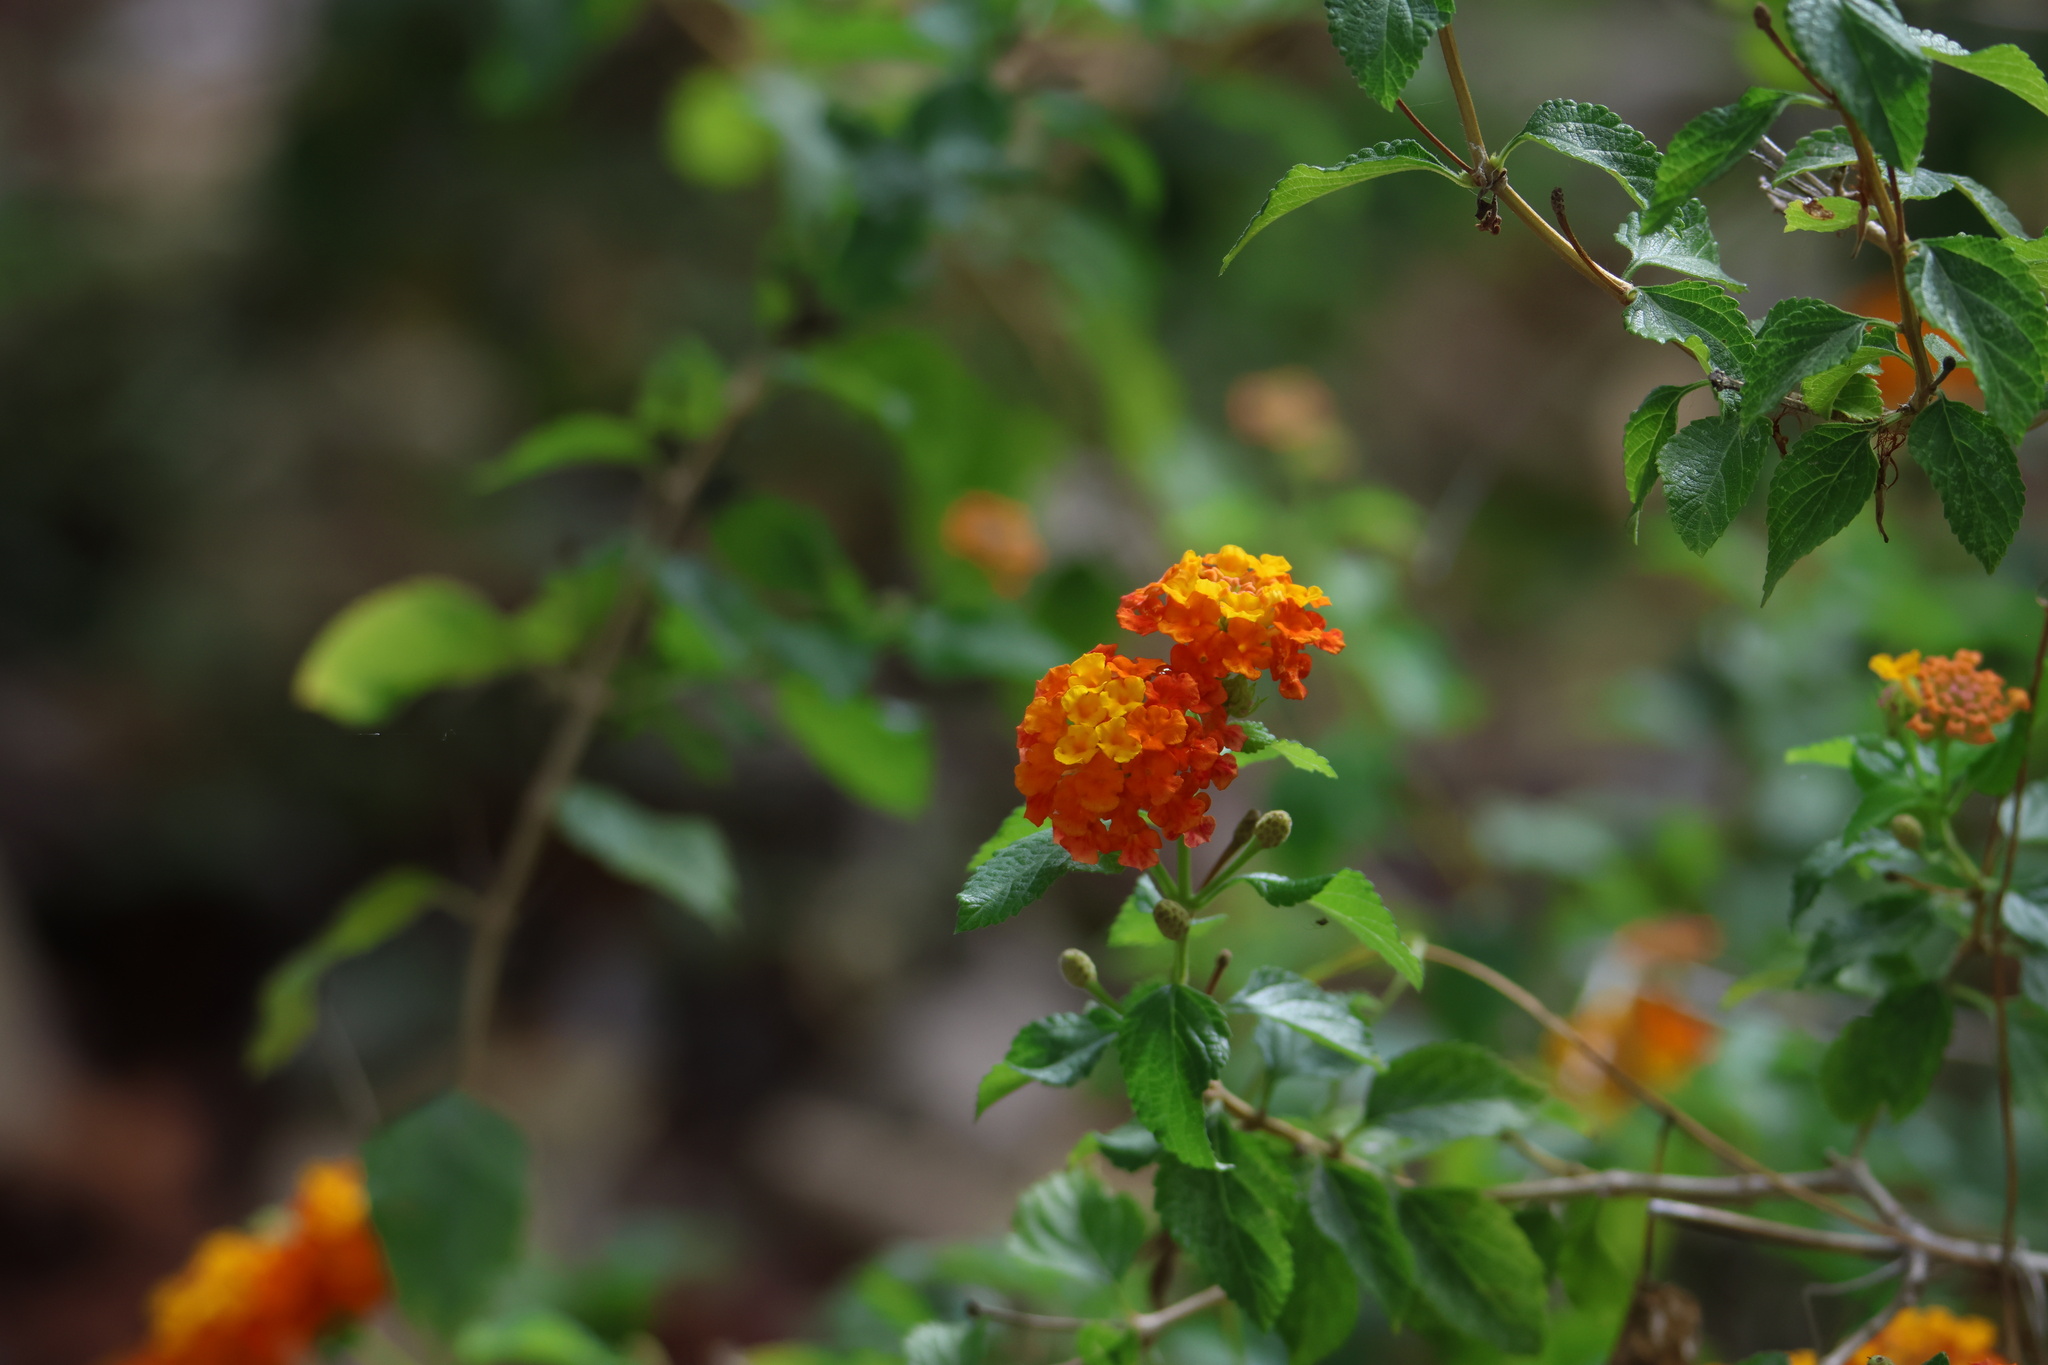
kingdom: Plantae
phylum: Tracheophyta
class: Magnoliopsida
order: Lamiales
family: Verbenaceae
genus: Lantana
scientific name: Lantana camara
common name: Lantana
